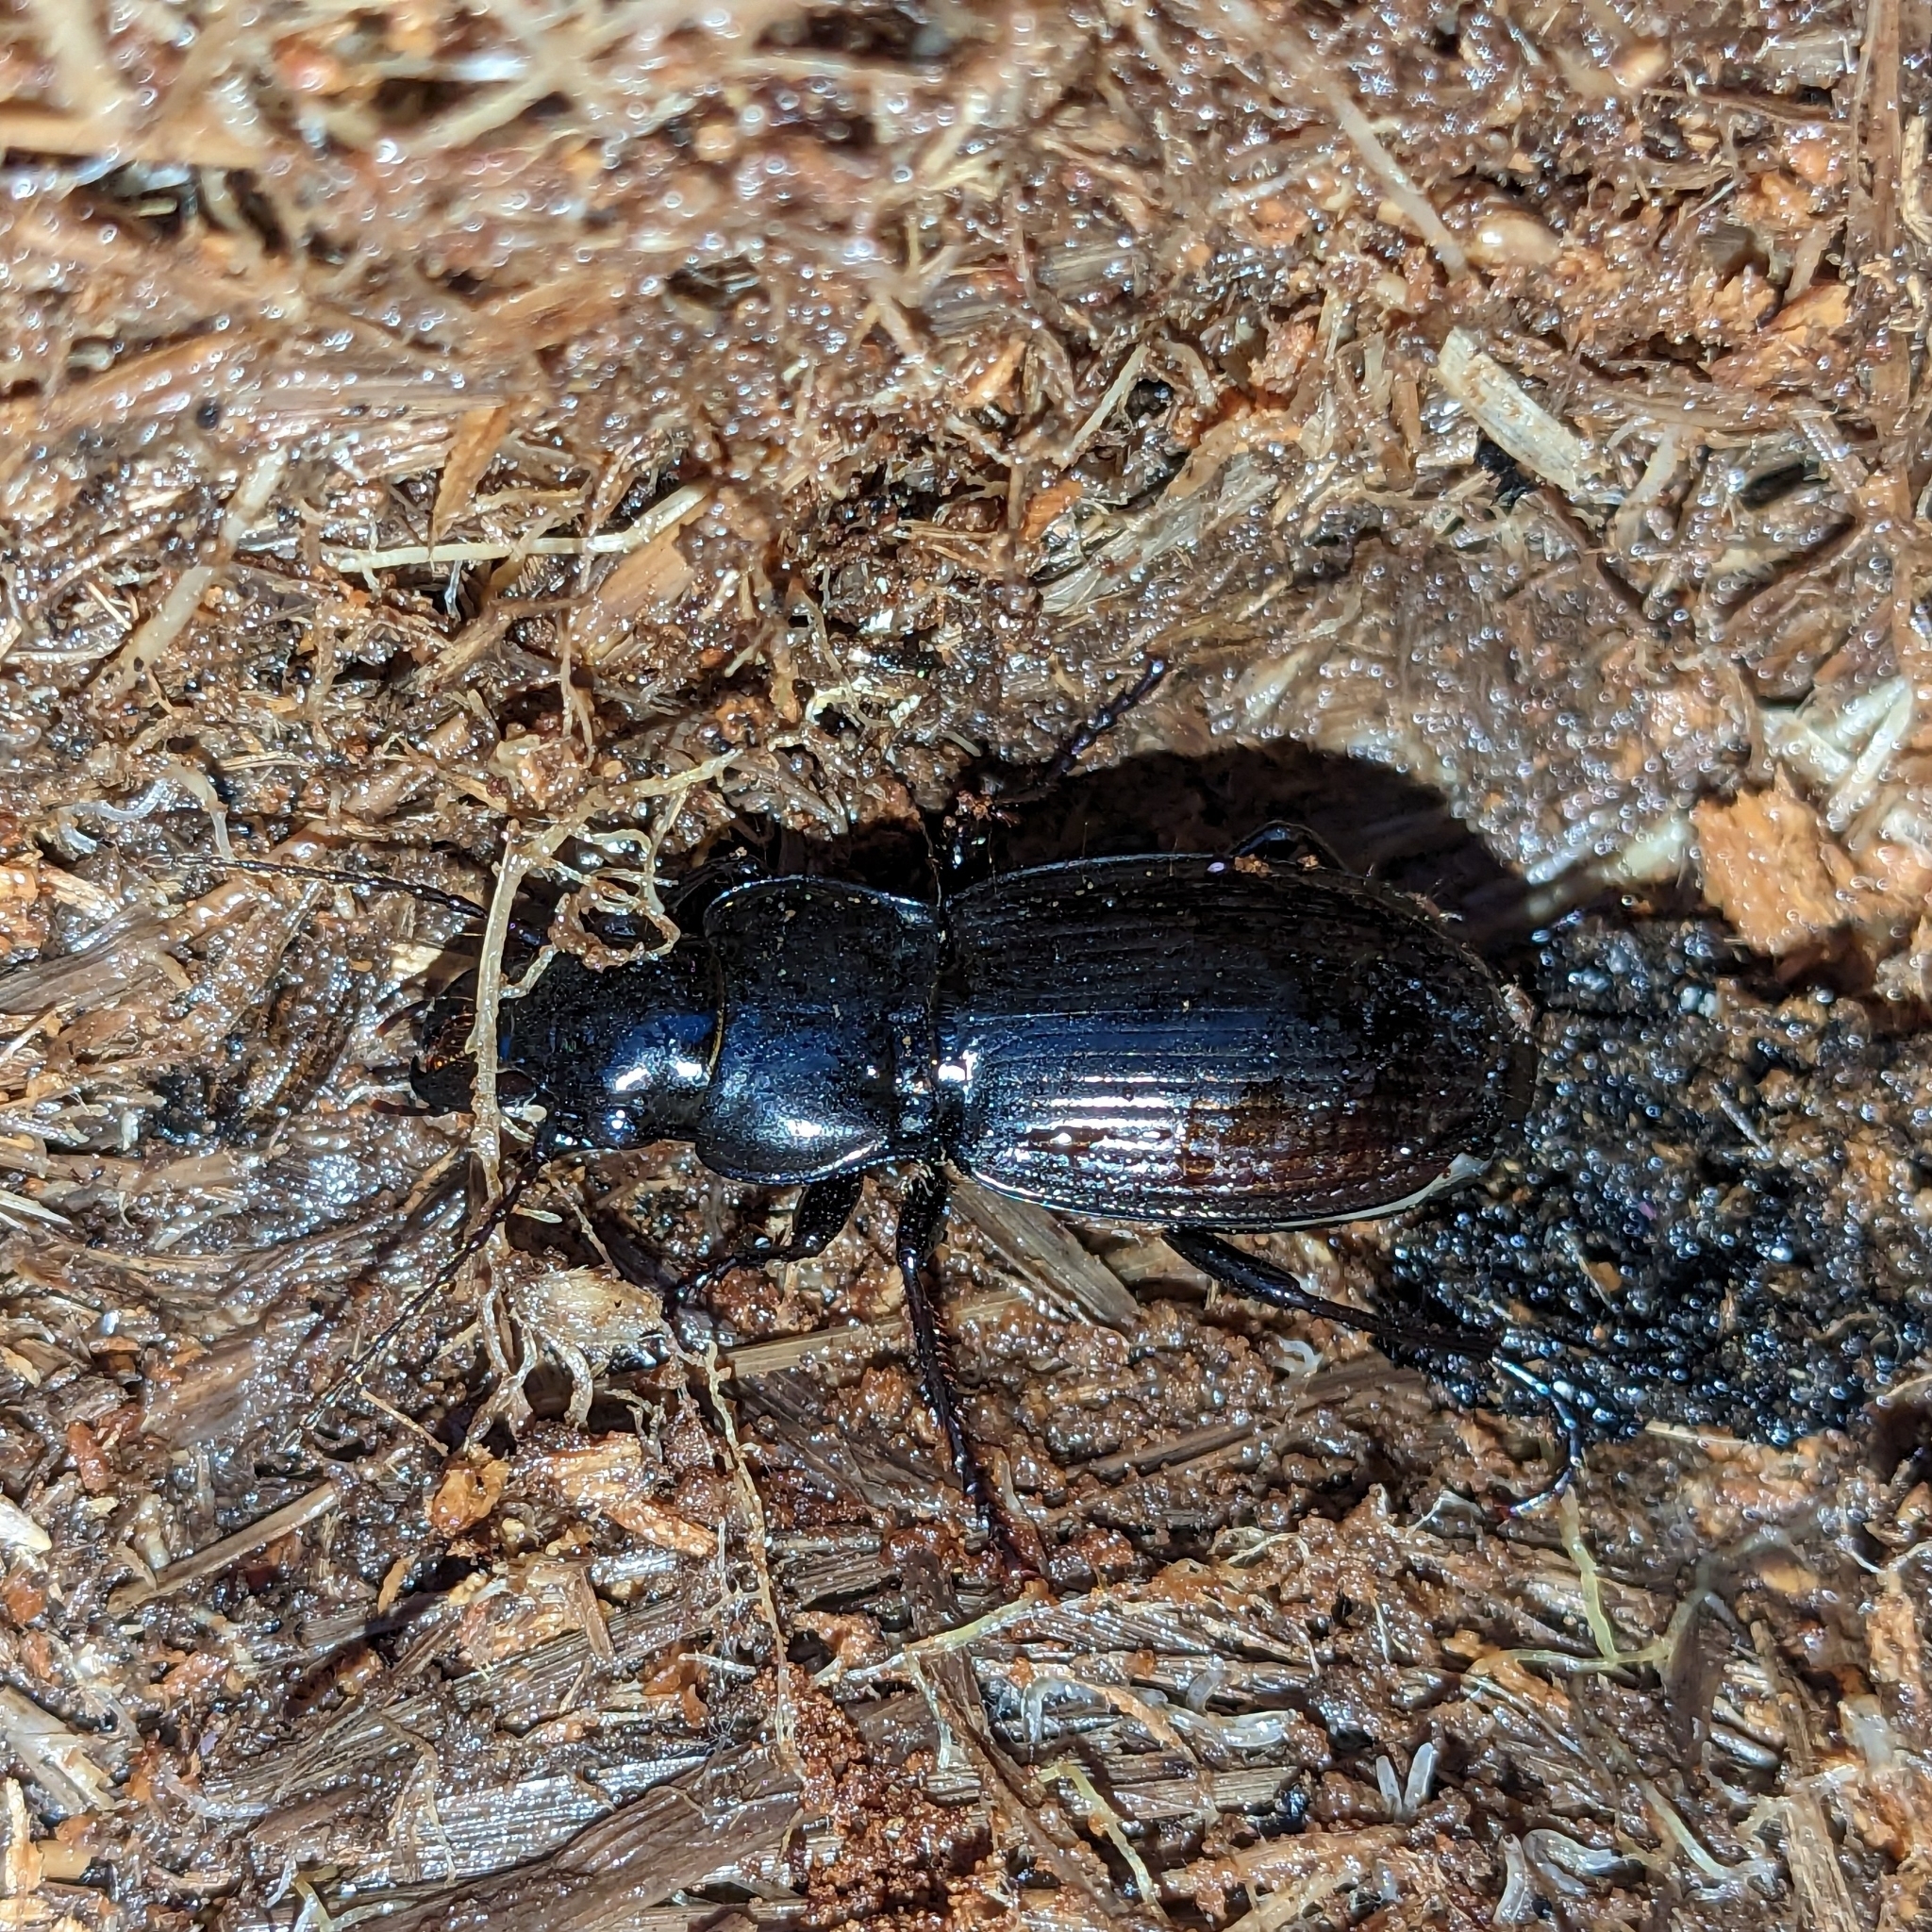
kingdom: Animalia
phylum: Arthropoda
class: Insecta
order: Coleoptera
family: Carabidae
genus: Megadromus
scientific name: Megadromus guerinii
